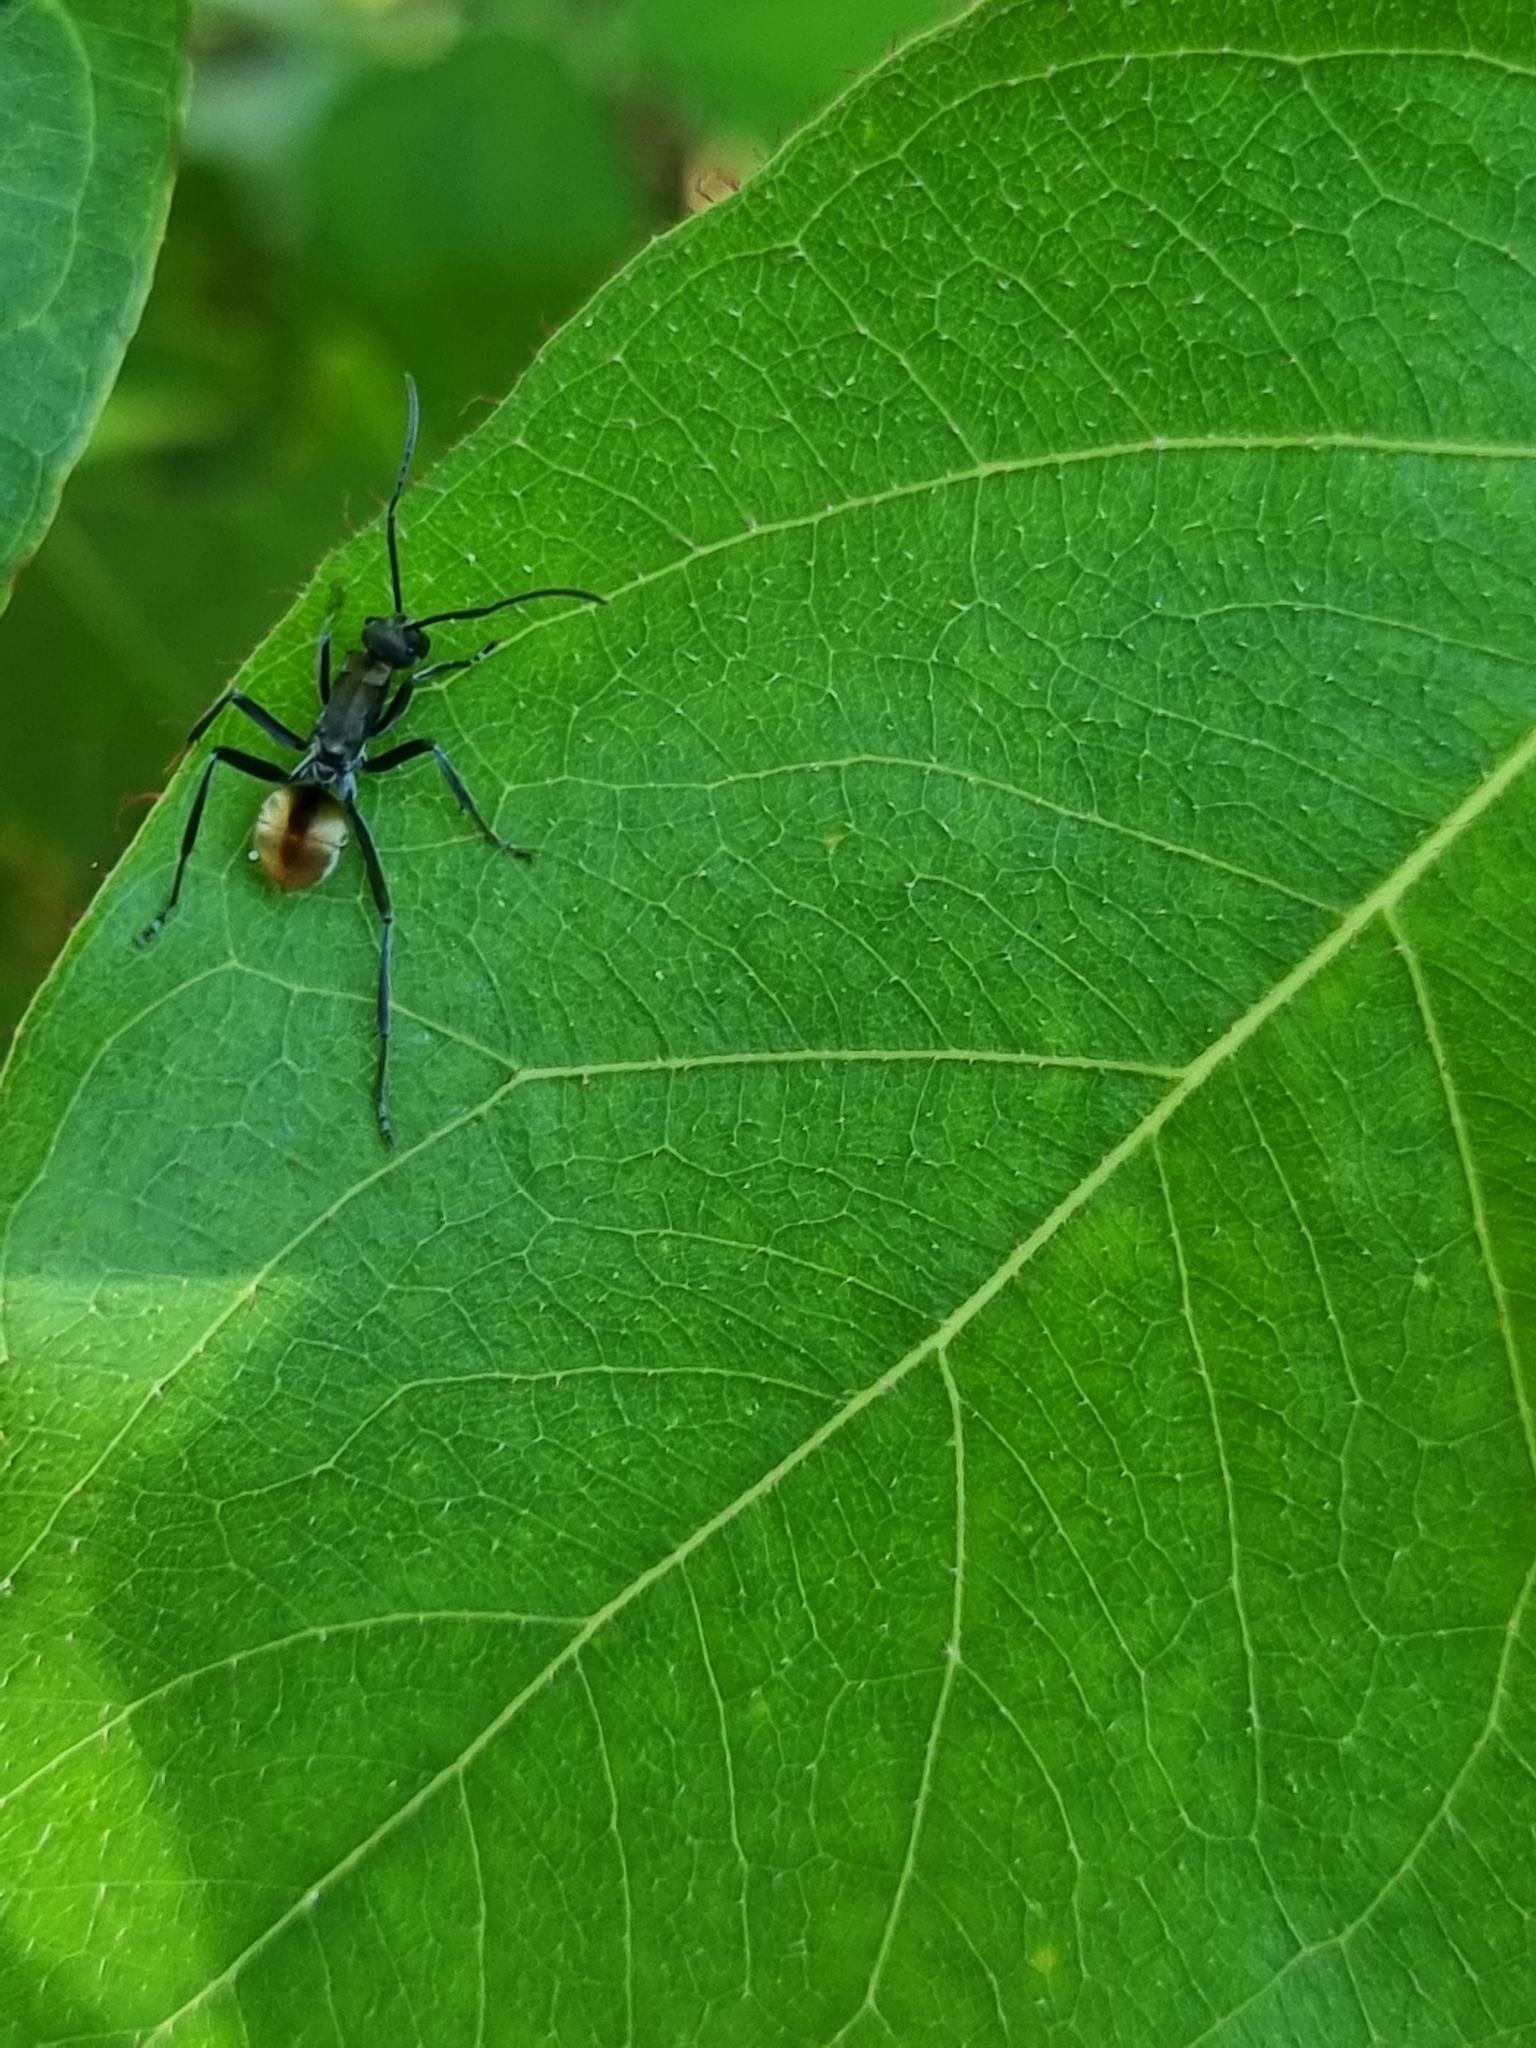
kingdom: Animalia
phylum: Arthropoda
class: Insecta
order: Hymenoptera
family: Formicidae
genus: Polyrhachis
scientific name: Polyrhachis
